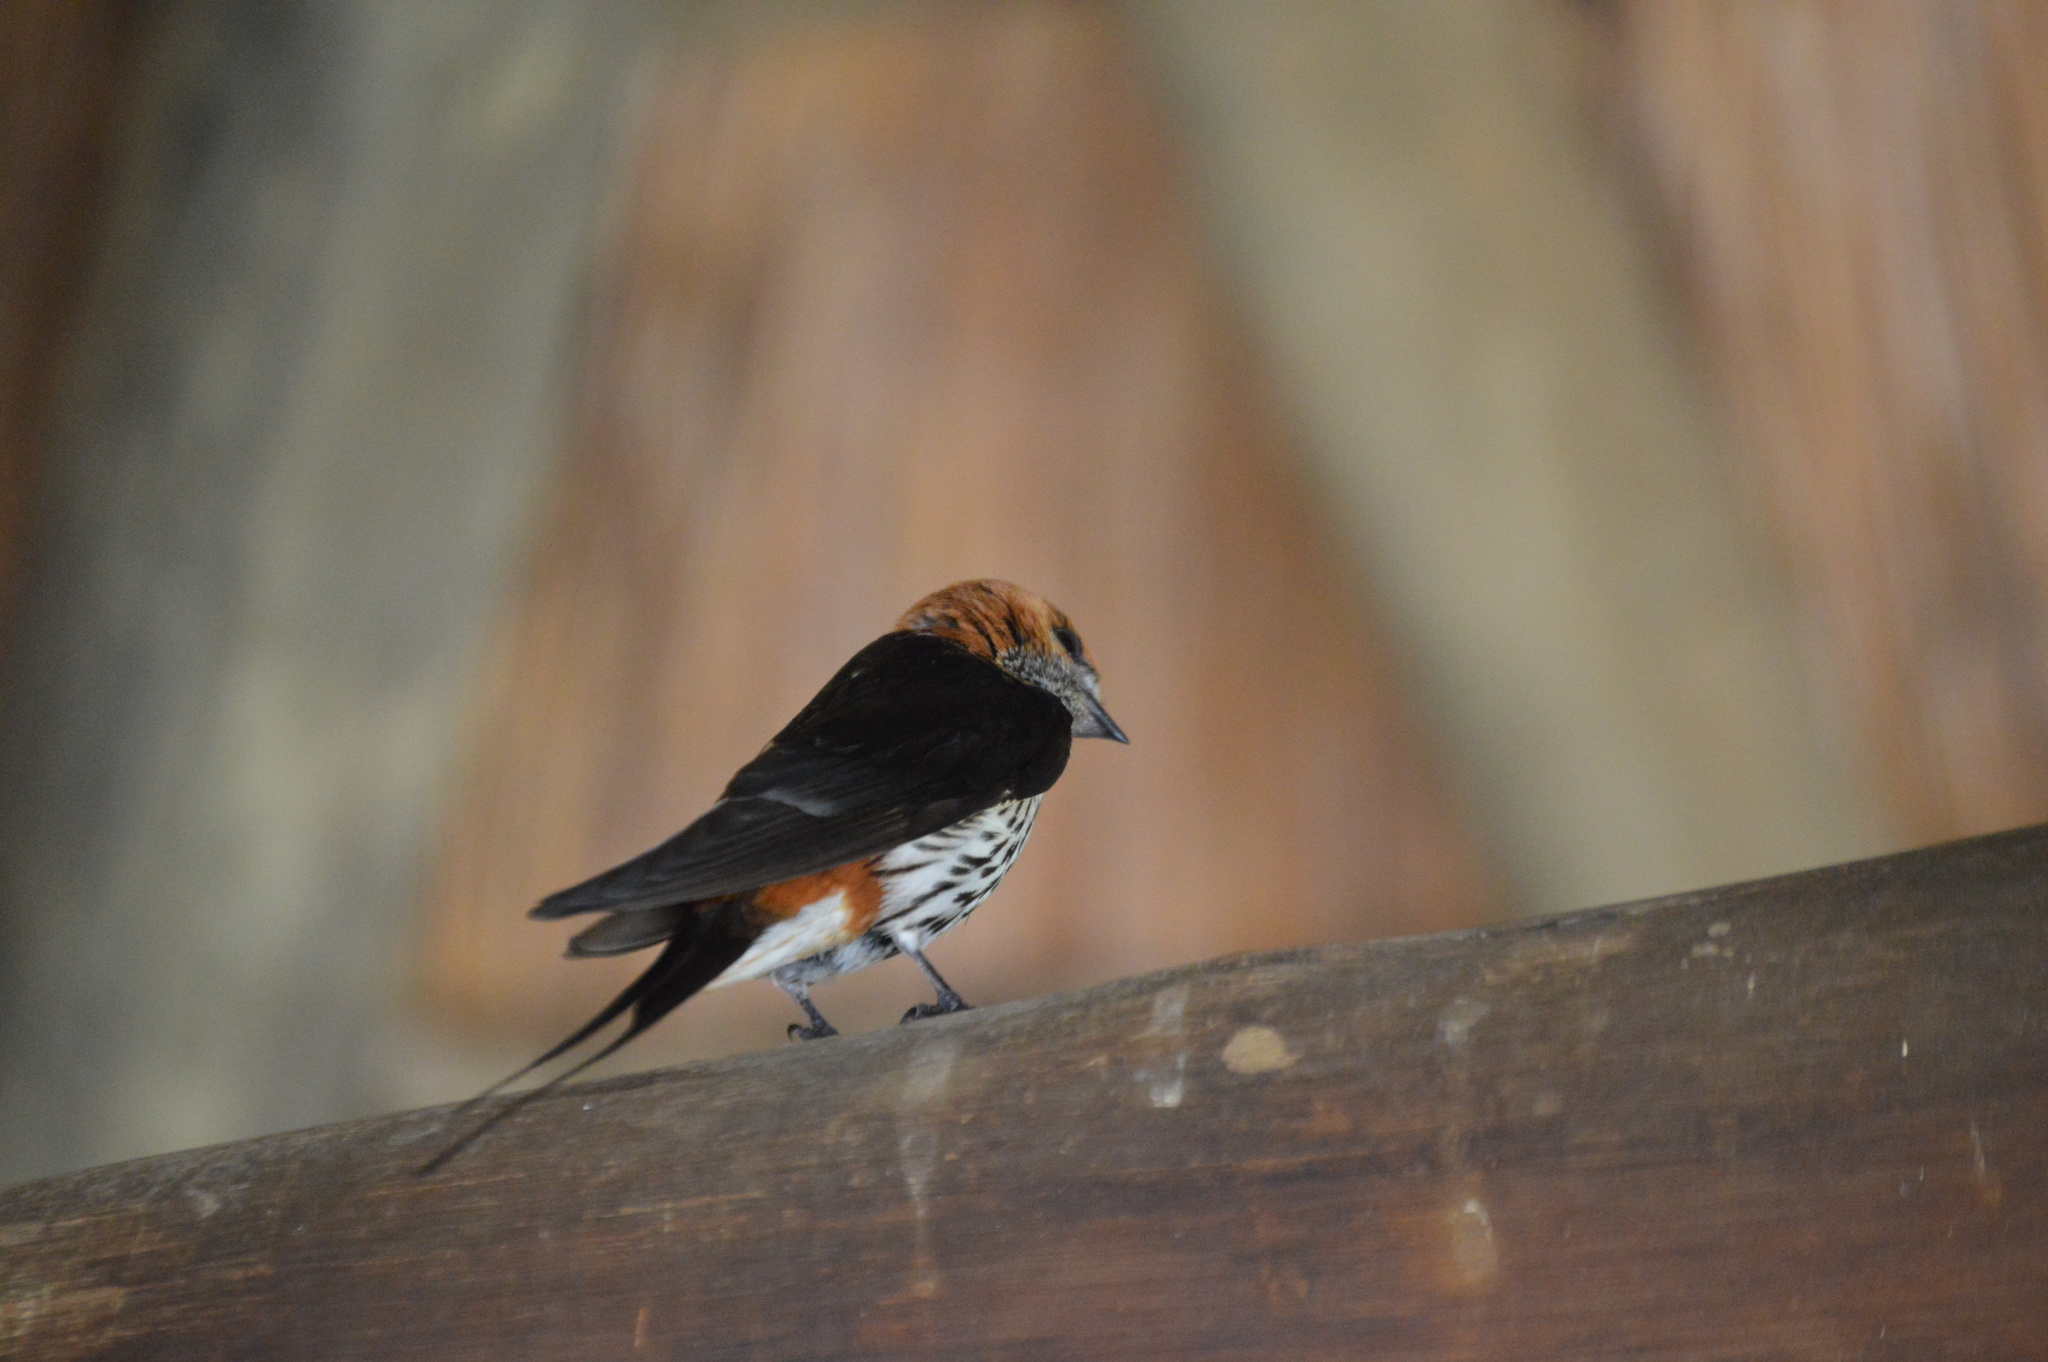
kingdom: Animalia
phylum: Chordata
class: Aves
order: Passeriformes
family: Hirundinidae
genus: Cecropis
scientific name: Cecropis abyssinica
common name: Lesser striped-swallow
